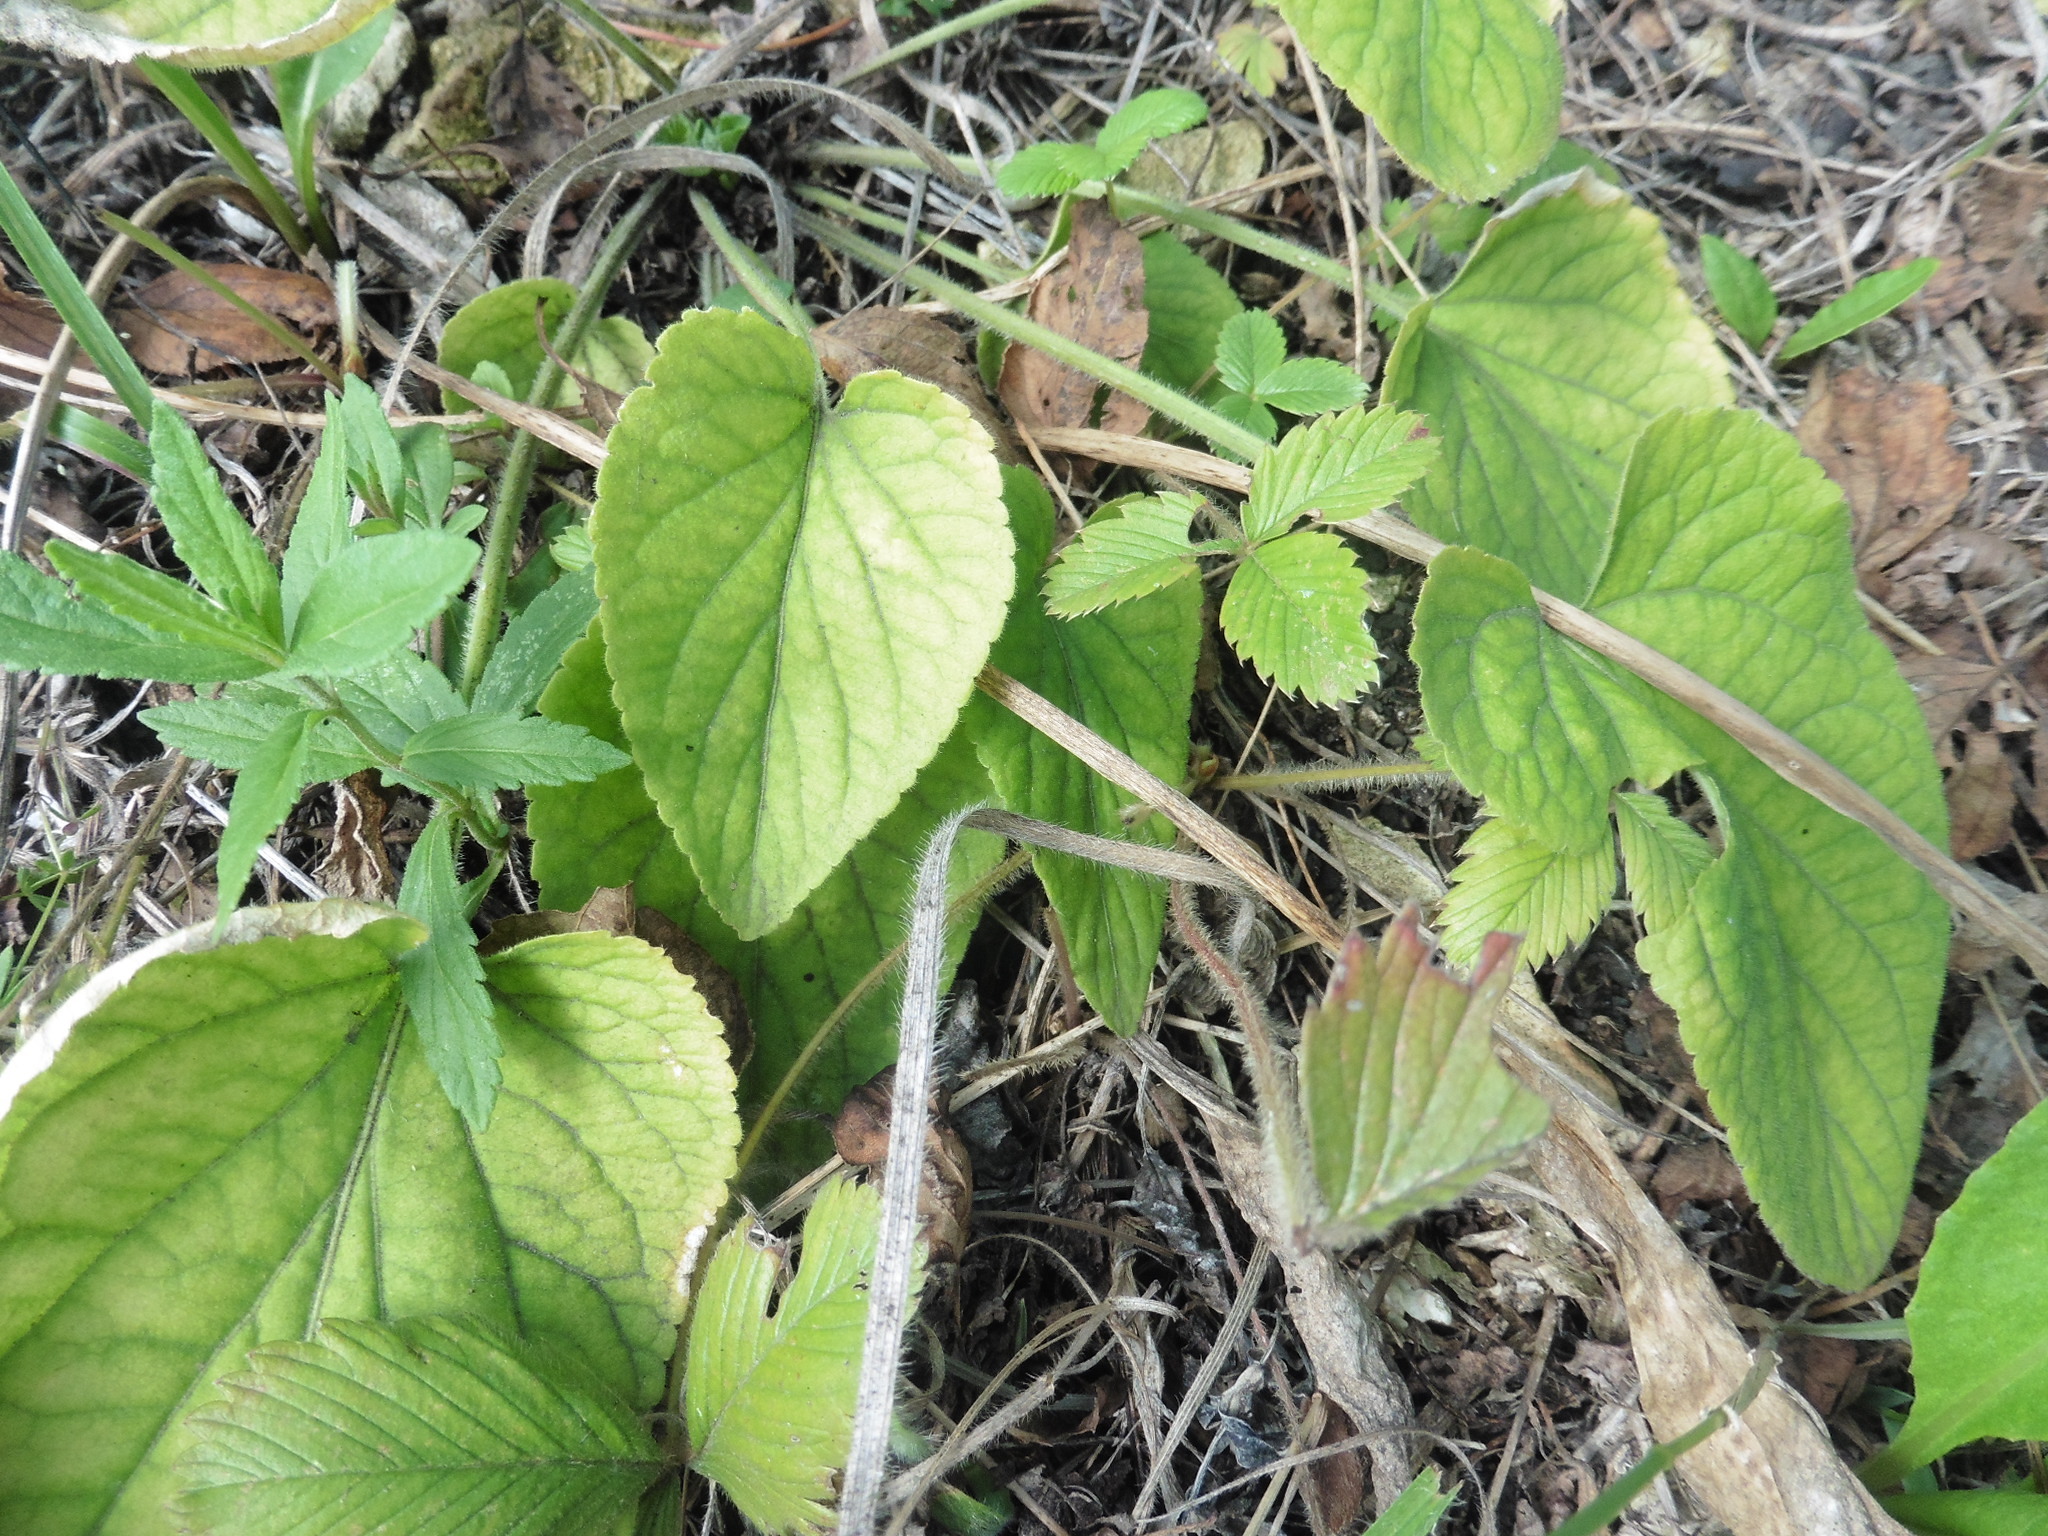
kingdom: Plantae
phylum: Tracheophyta
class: Magnoliopsida
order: Malpighiales
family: Violaceae
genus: Viola
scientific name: Viola hirta
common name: Hairy violet
